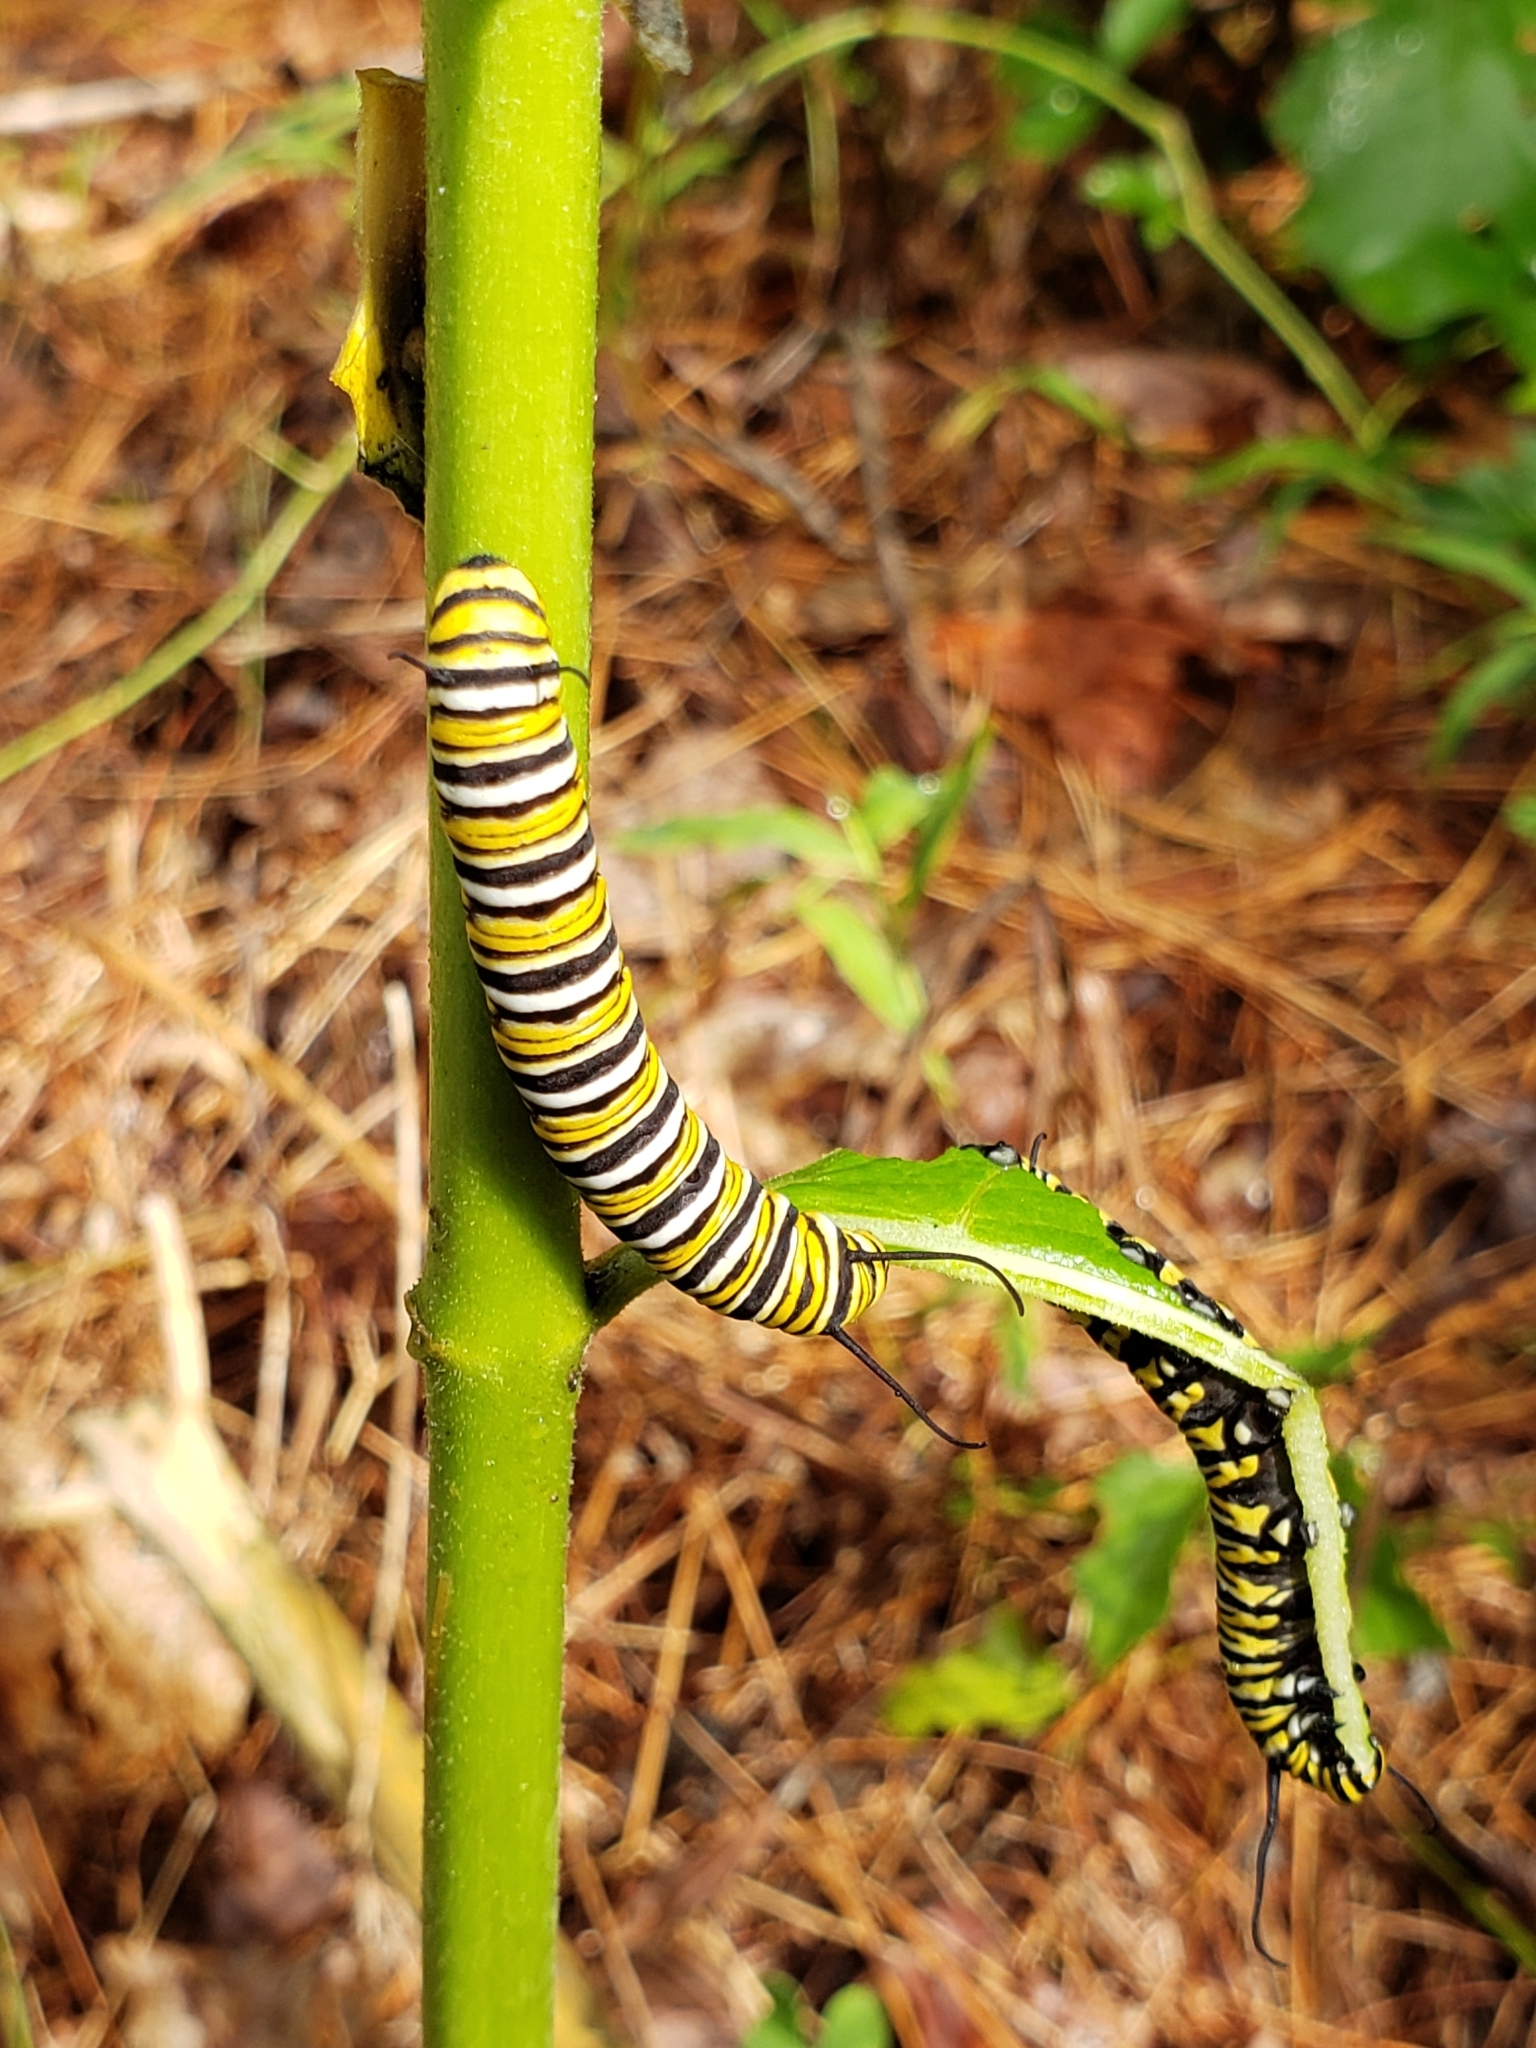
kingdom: Animalia
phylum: Arthropoda
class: Insecta
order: Lepidoptera
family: Nymphalidae
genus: Danaus
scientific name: Danaus plexippus
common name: Monarch
